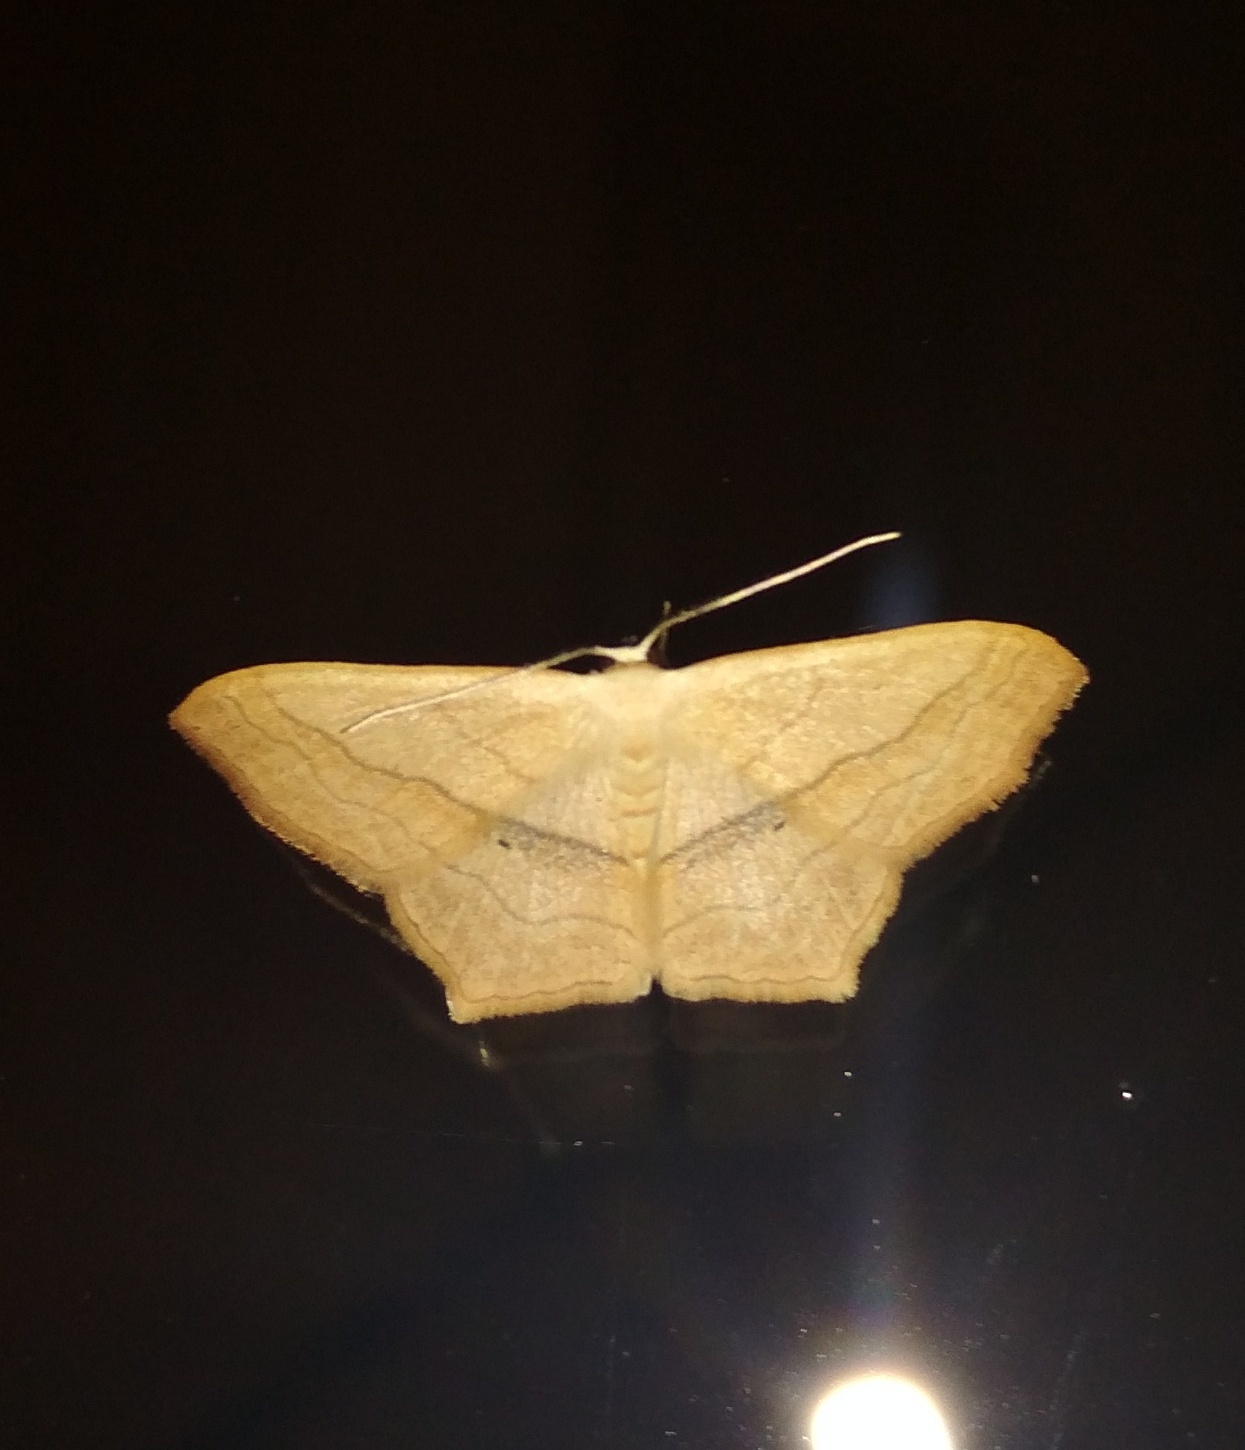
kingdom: Animalia
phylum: Arthropoda
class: Insecta
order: Lepidoptera
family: Geometridae
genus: Scopula
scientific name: Scopula imitaria
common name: Small blood-vein
